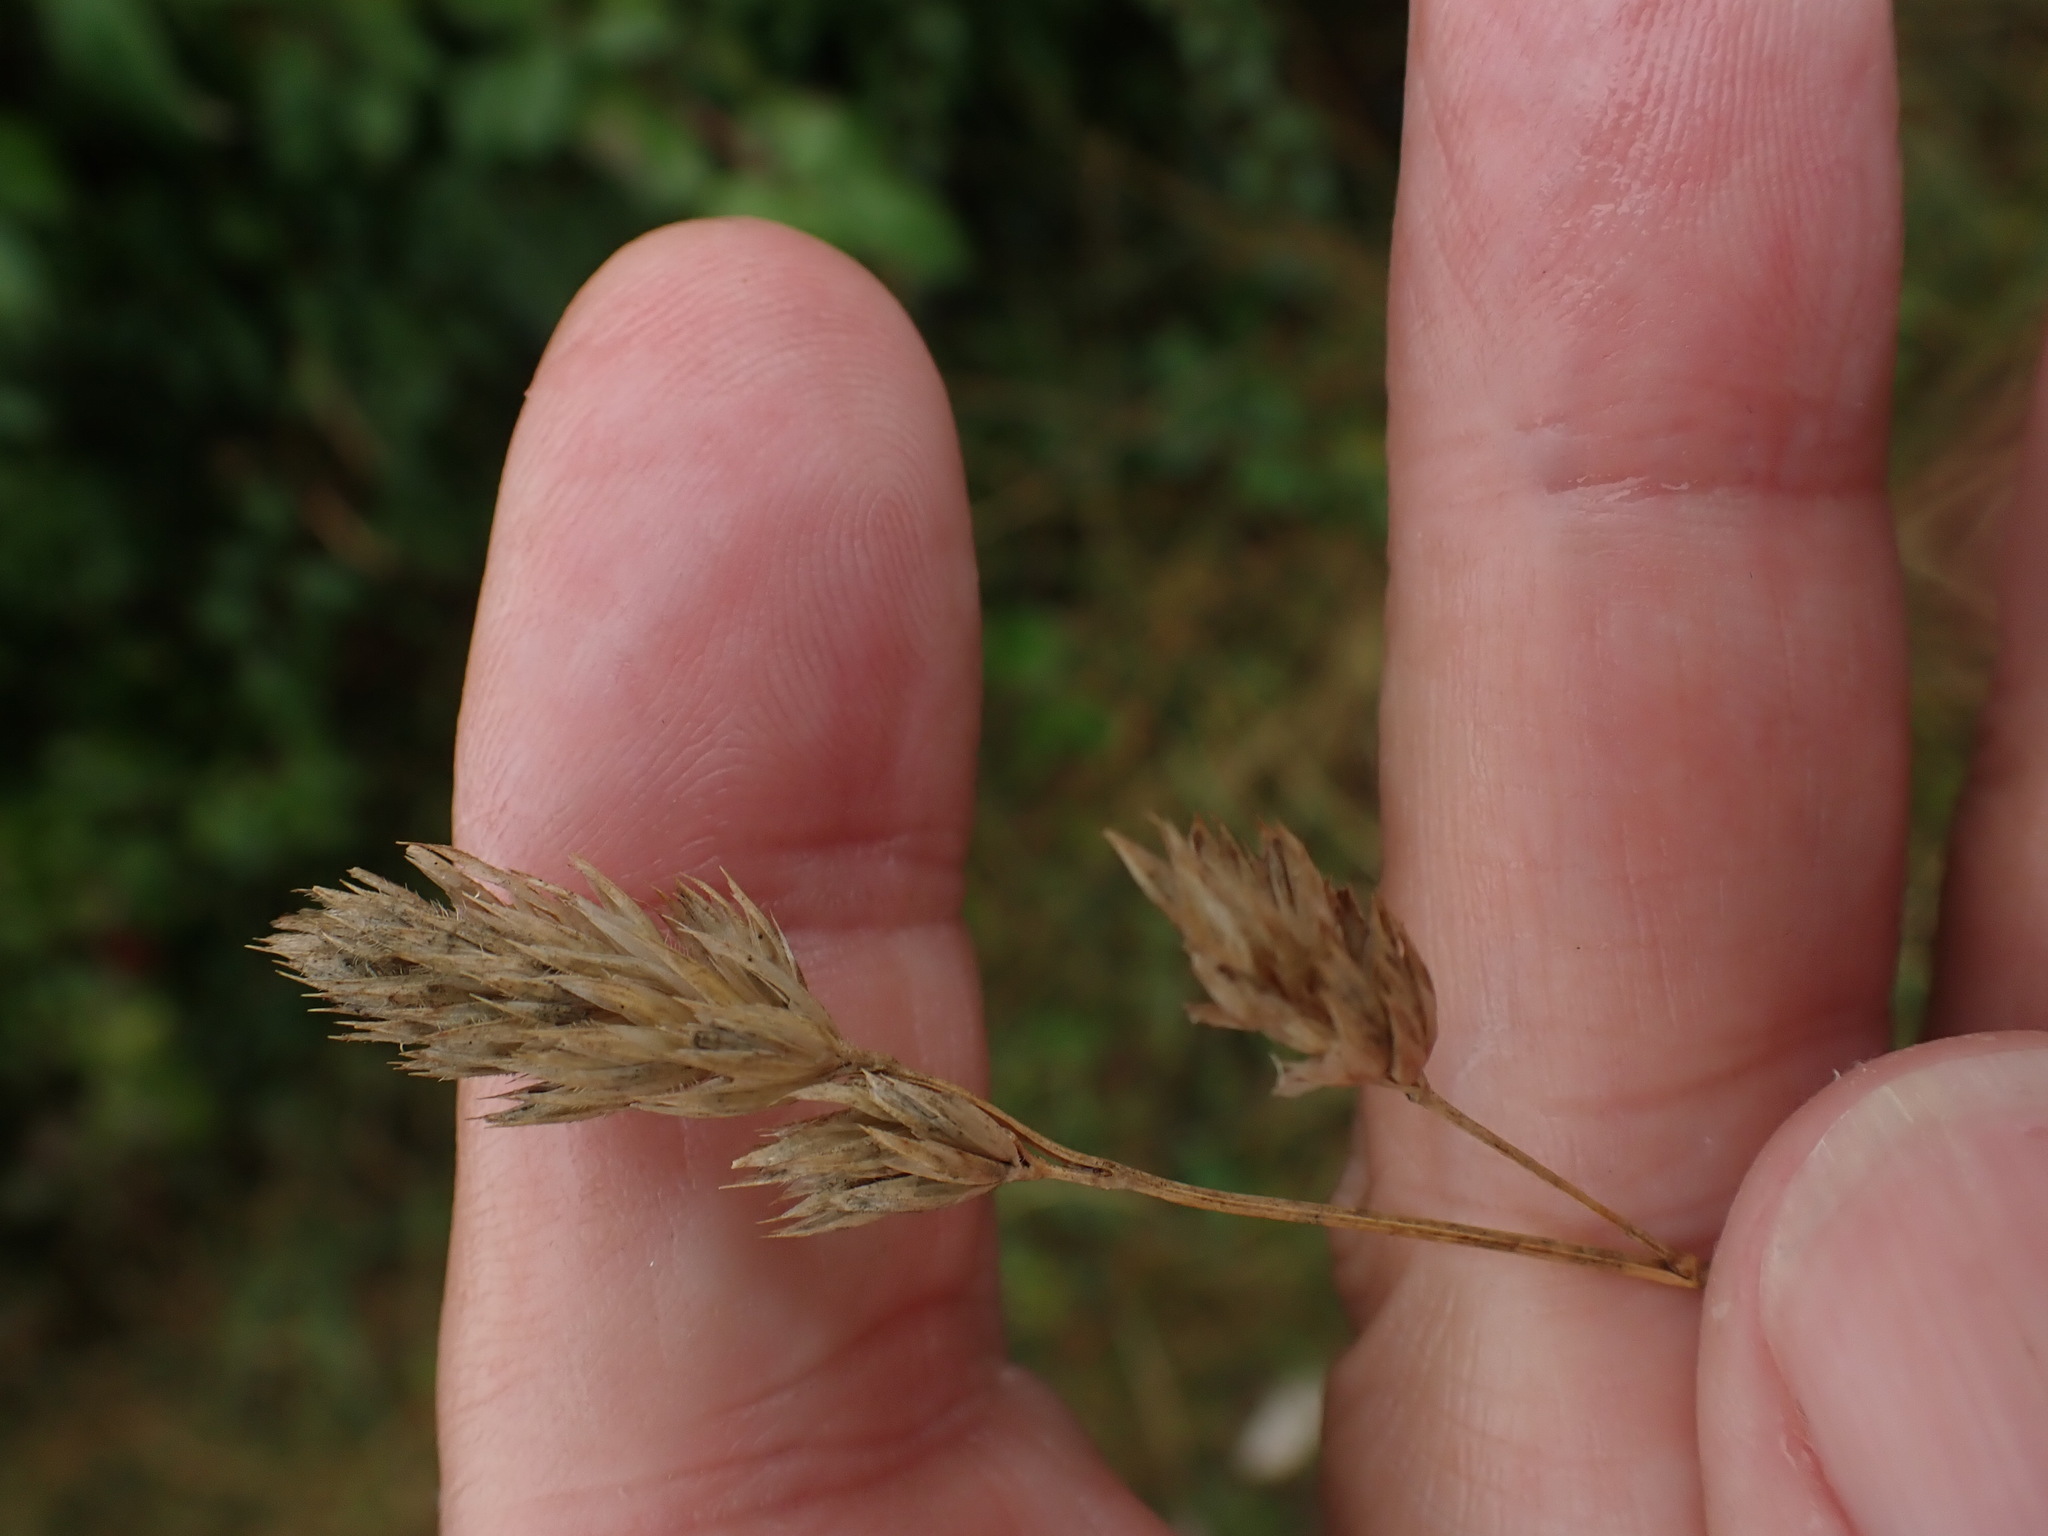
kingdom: Plantae
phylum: Tracheophyta
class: Liliopsida
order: Poales
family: Poaceae
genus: Dactylis
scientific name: Dactylis glomerata
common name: Orchardgrass
